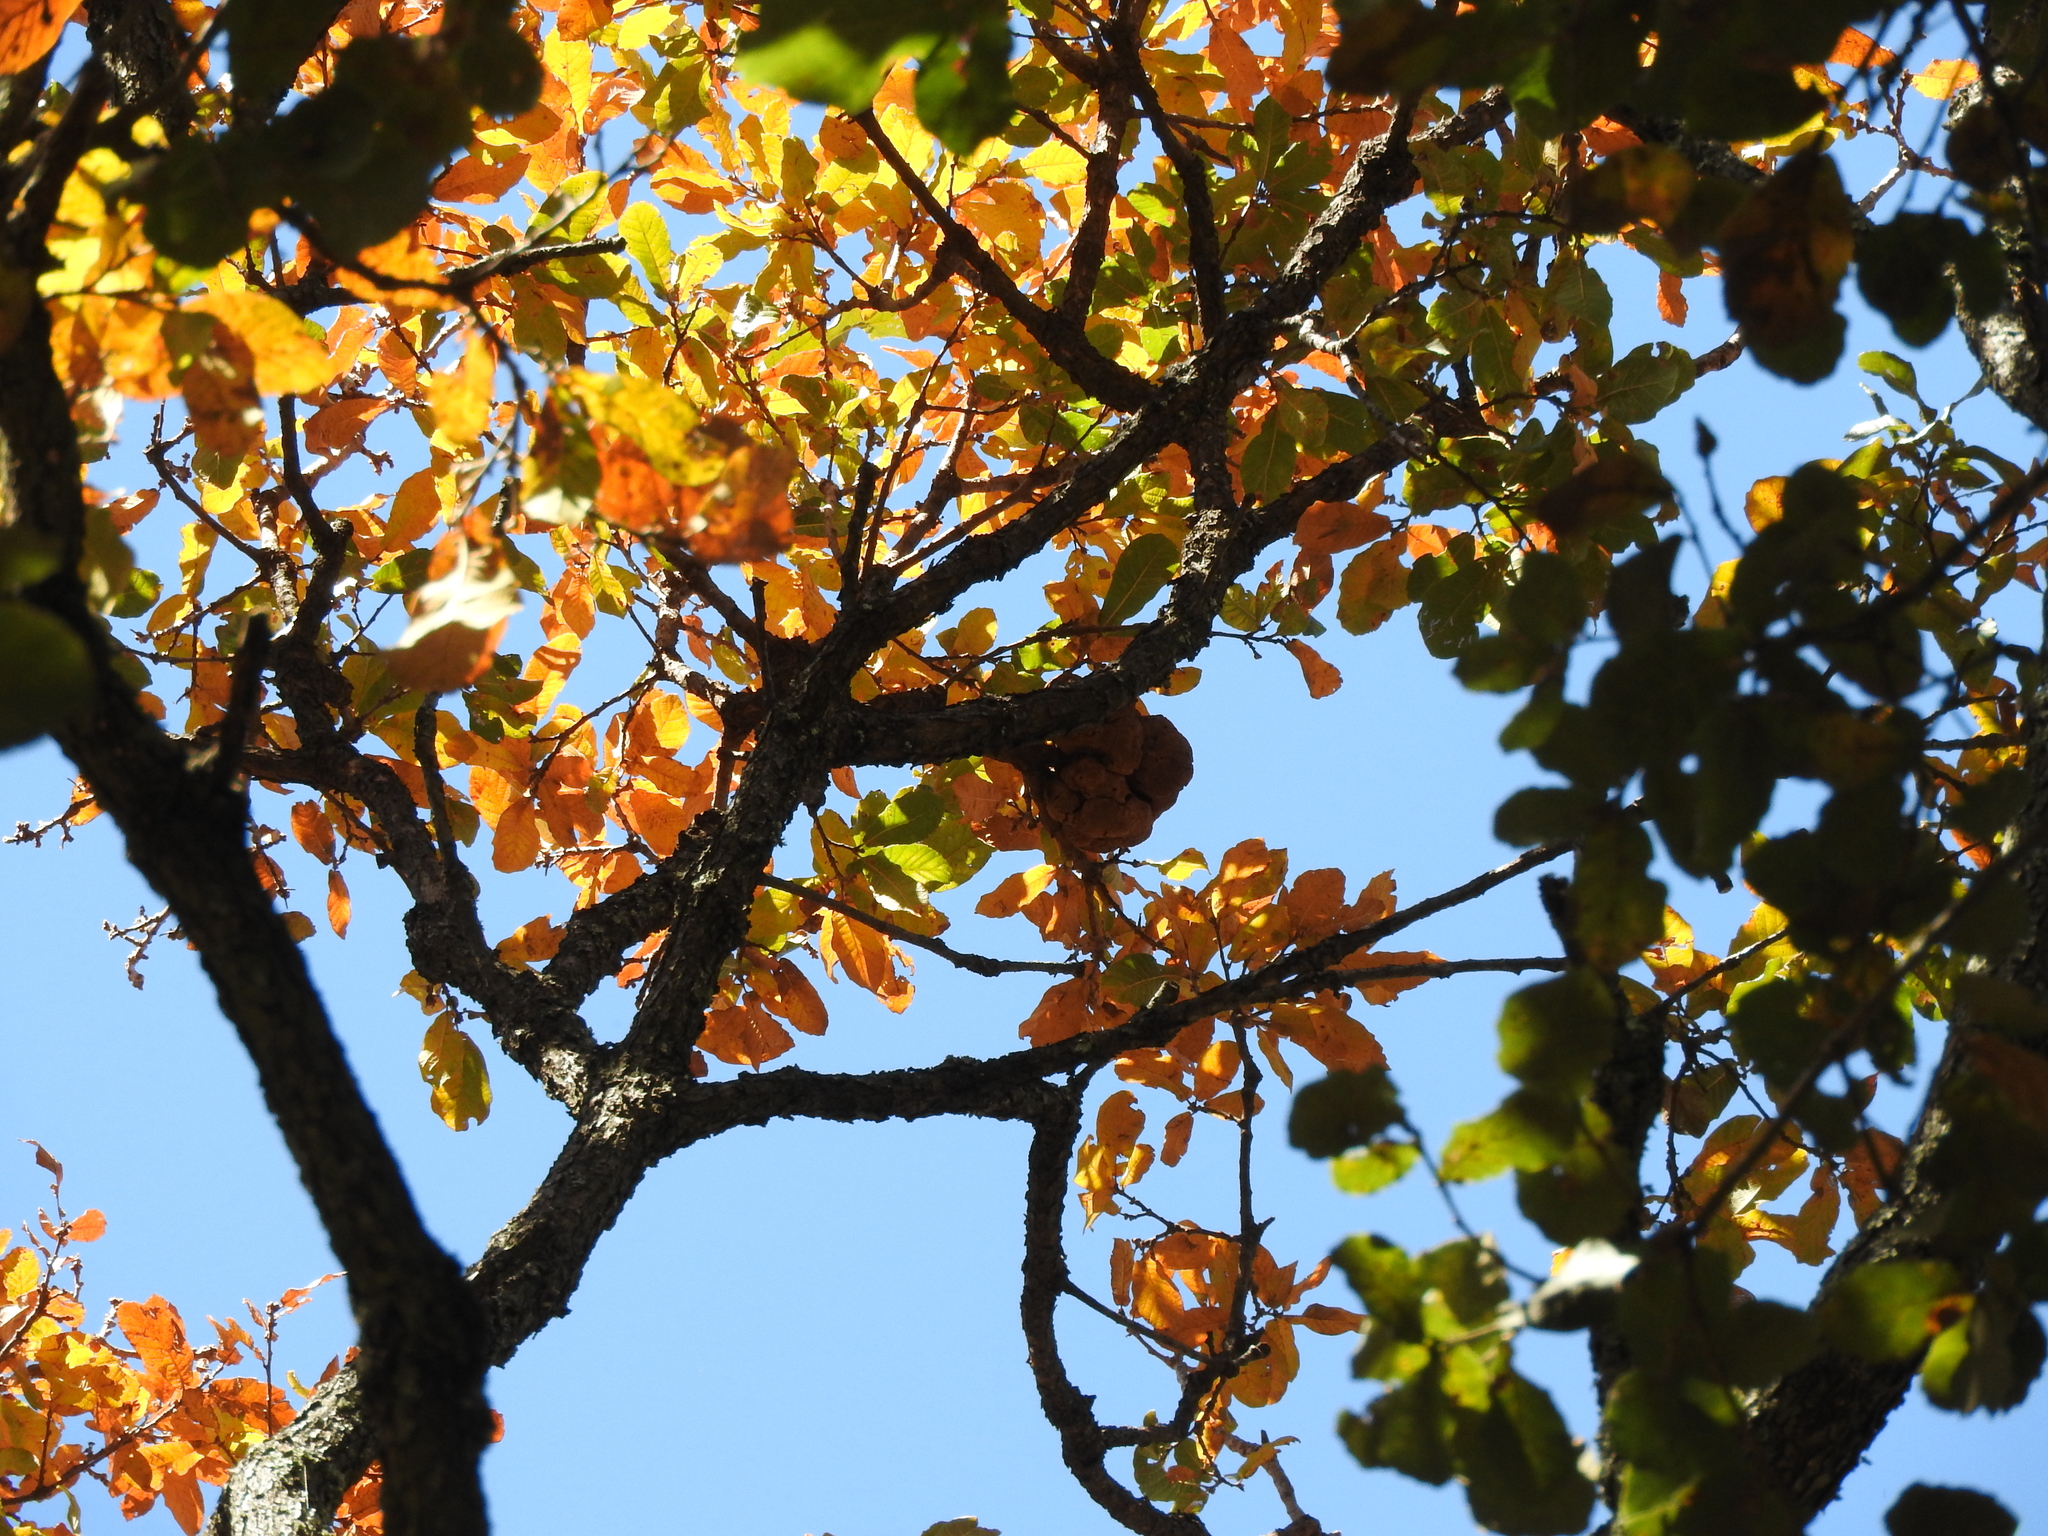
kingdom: Plantae
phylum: Tracheophyta
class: Magnoliopsida
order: Fagales
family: Fagaceae
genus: Quercus
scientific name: Quercus laeta
